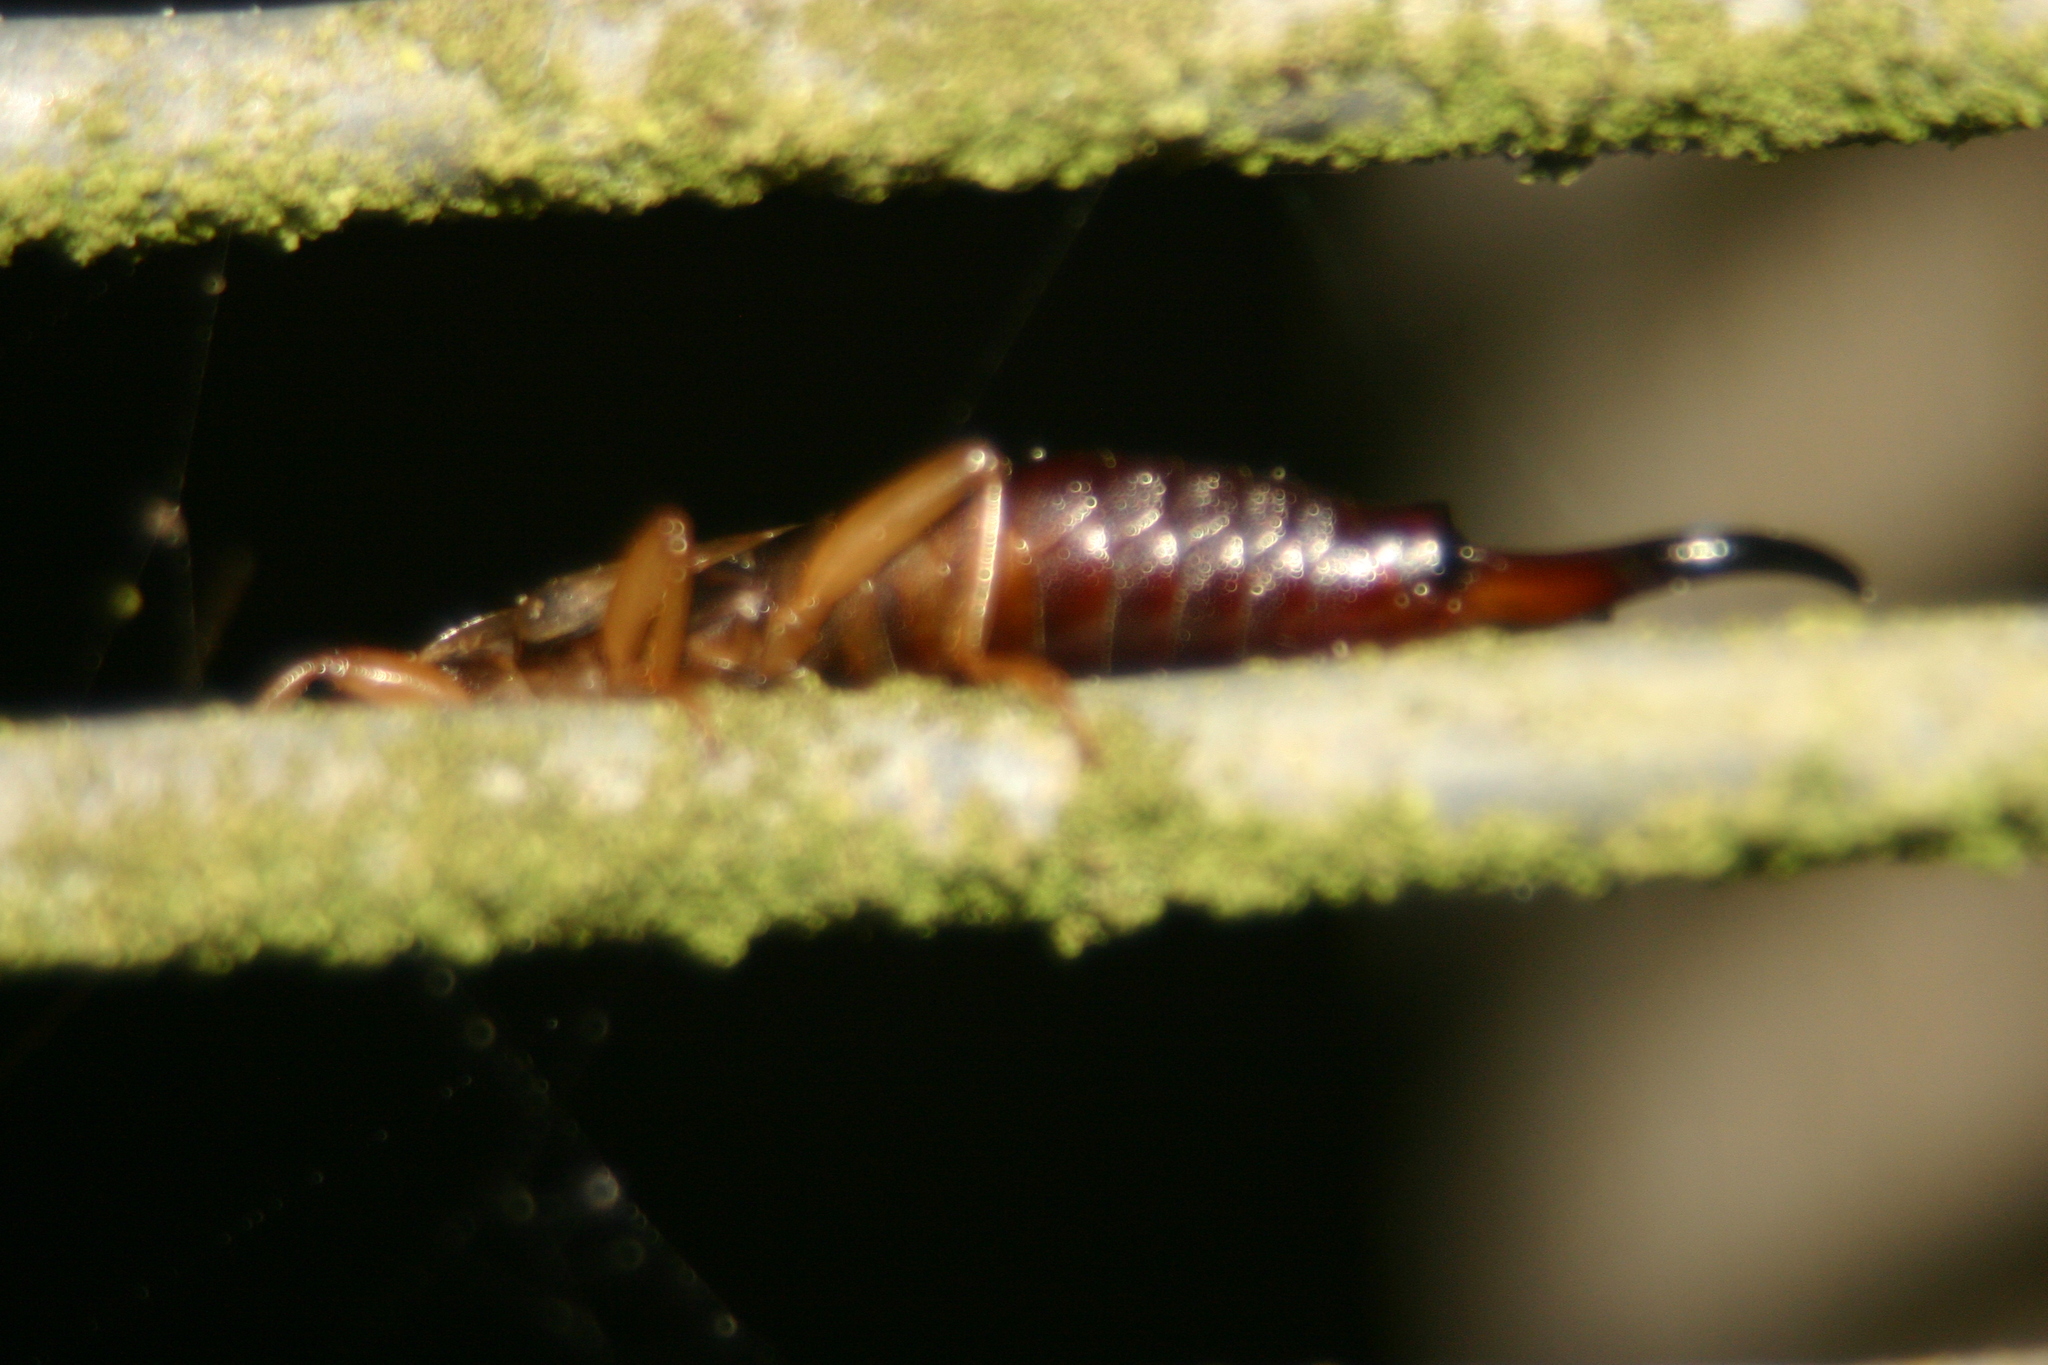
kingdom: Animalia
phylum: Arthropoda
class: Insecta
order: Dermaptera
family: Forficulidae
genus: Forficula
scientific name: Forficula
